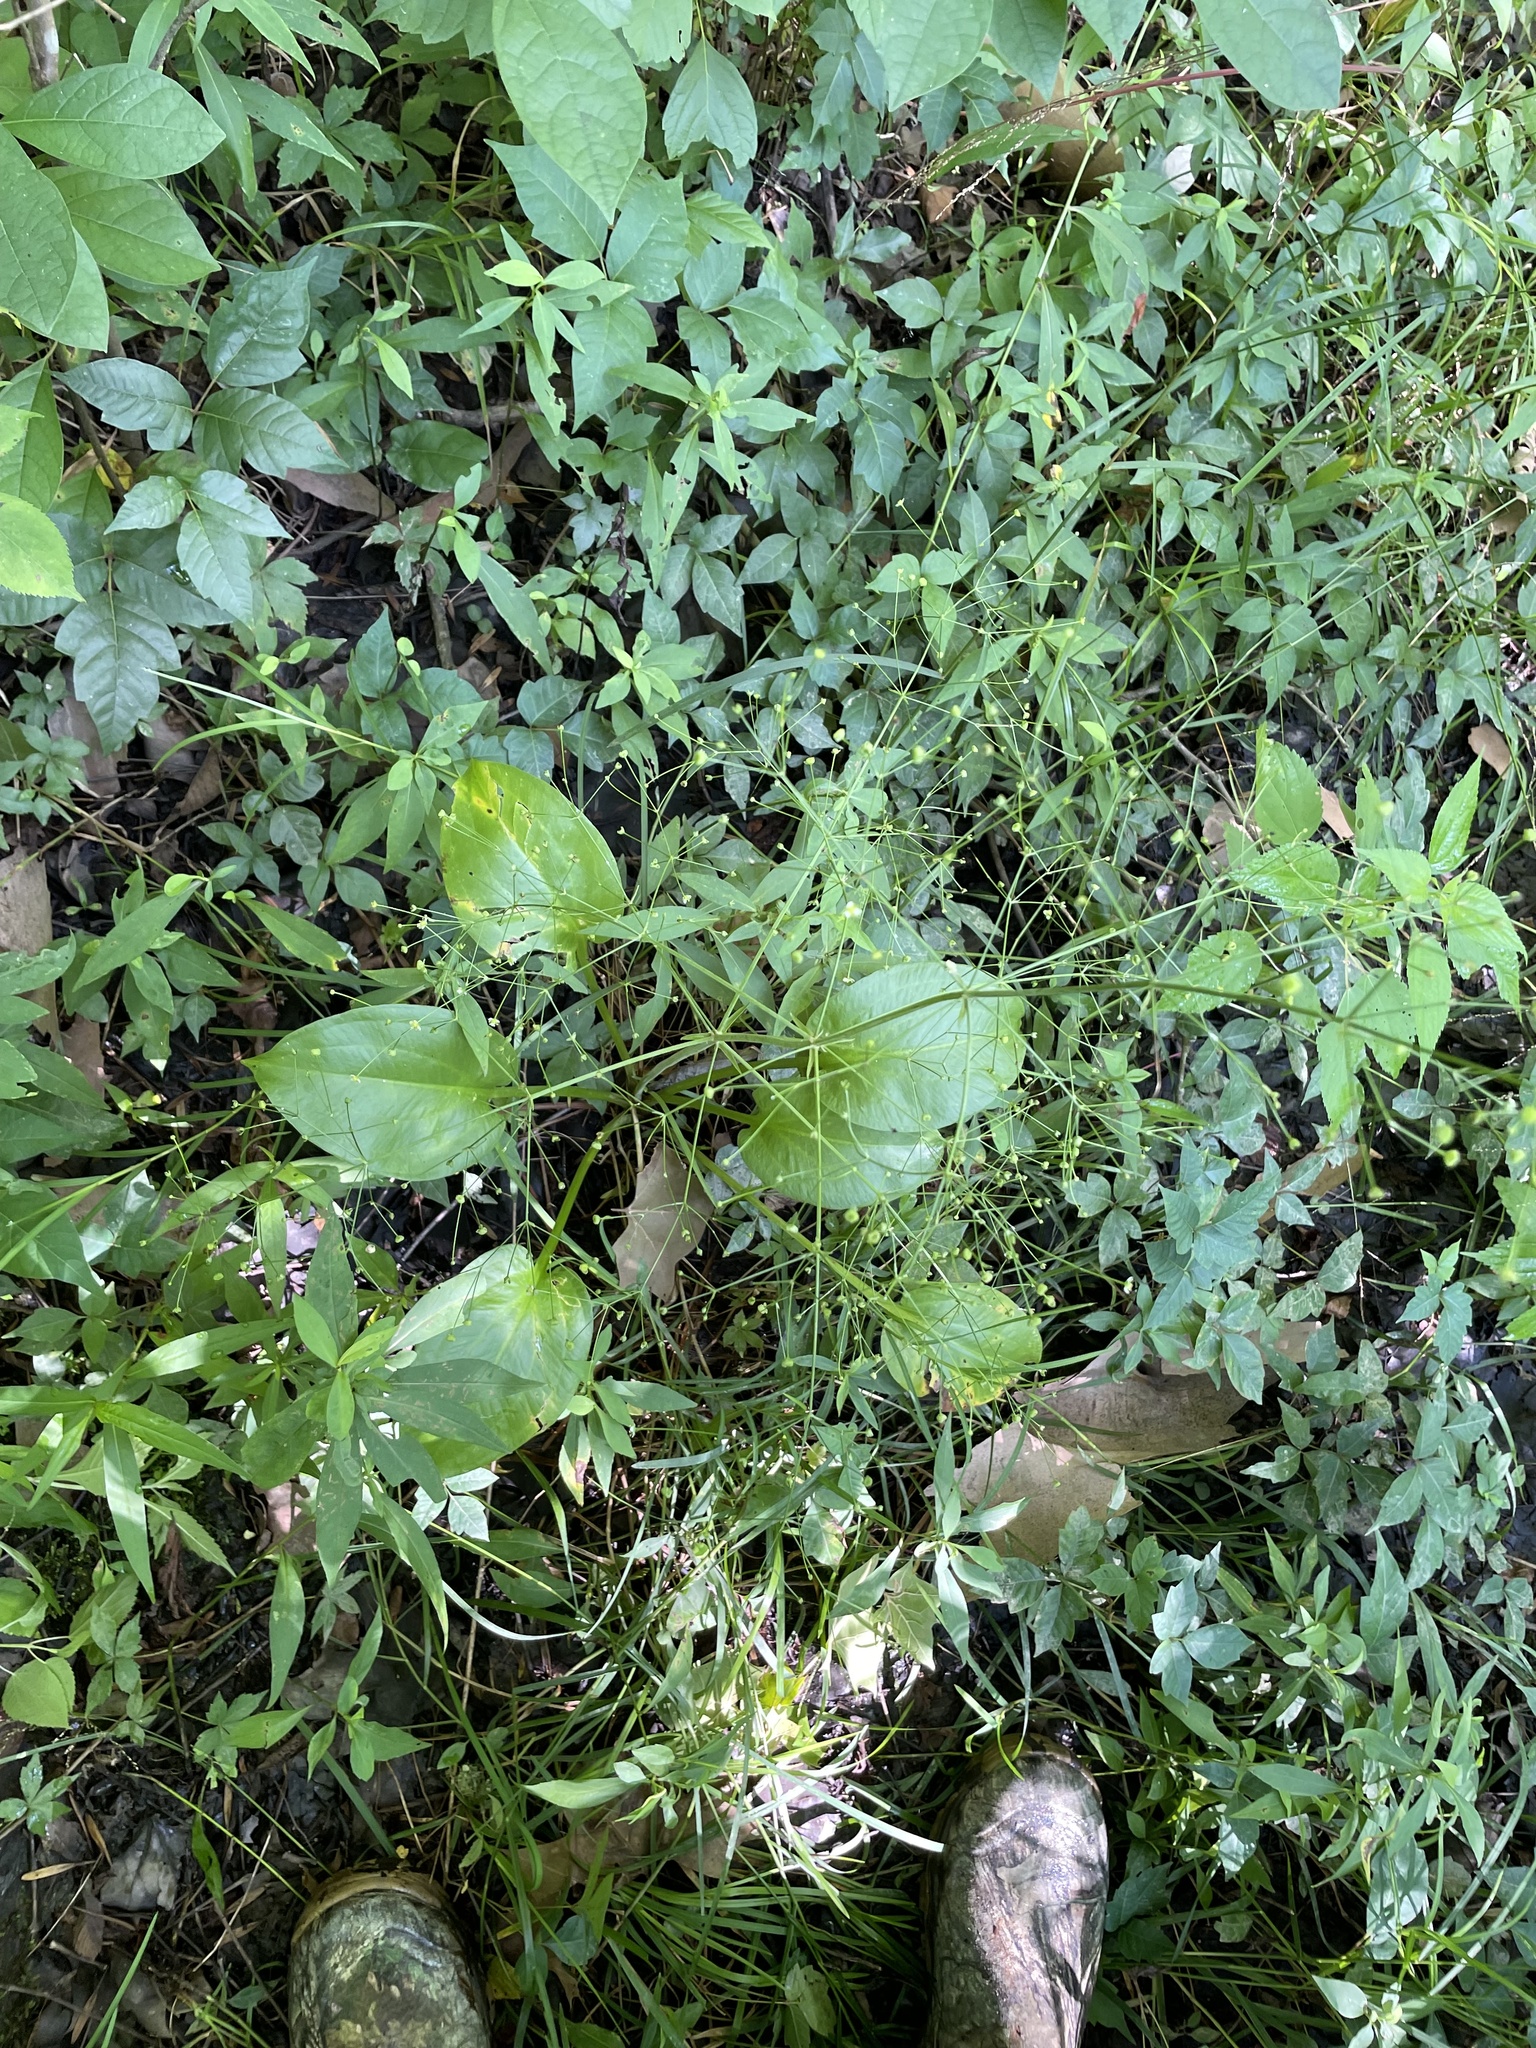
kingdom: Plantae
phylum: Tracheophyta
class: Liliopsida
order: Alismatales
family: Alismataceae
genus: Alisma
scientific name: Alisma subcordatum
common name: Southern water-plantain
